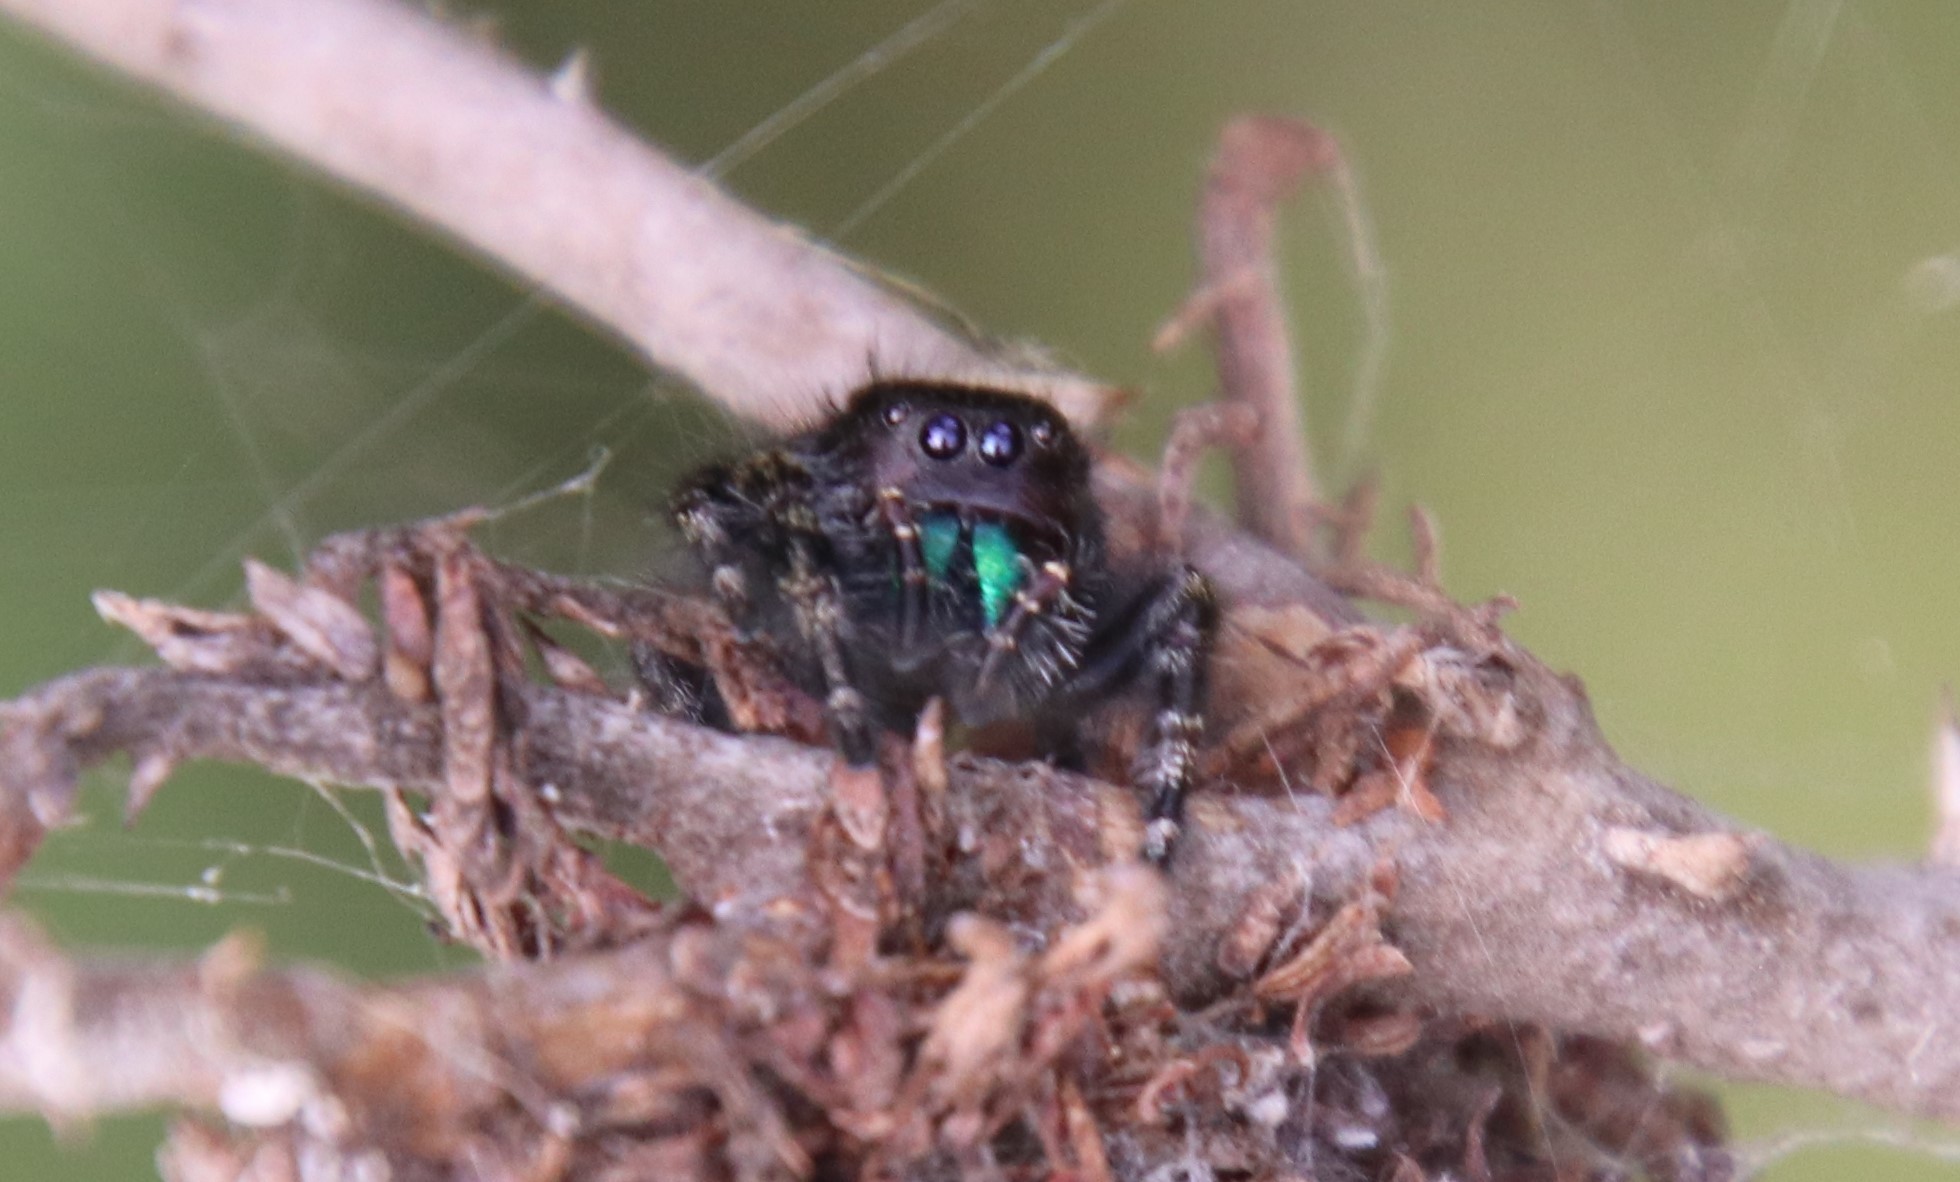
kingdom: Animalia
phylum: Arthropoda
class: Arachnida
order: Araneae
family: Salticidae
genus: Phidippus
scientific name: Phidippus audax
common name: Bold jumper
